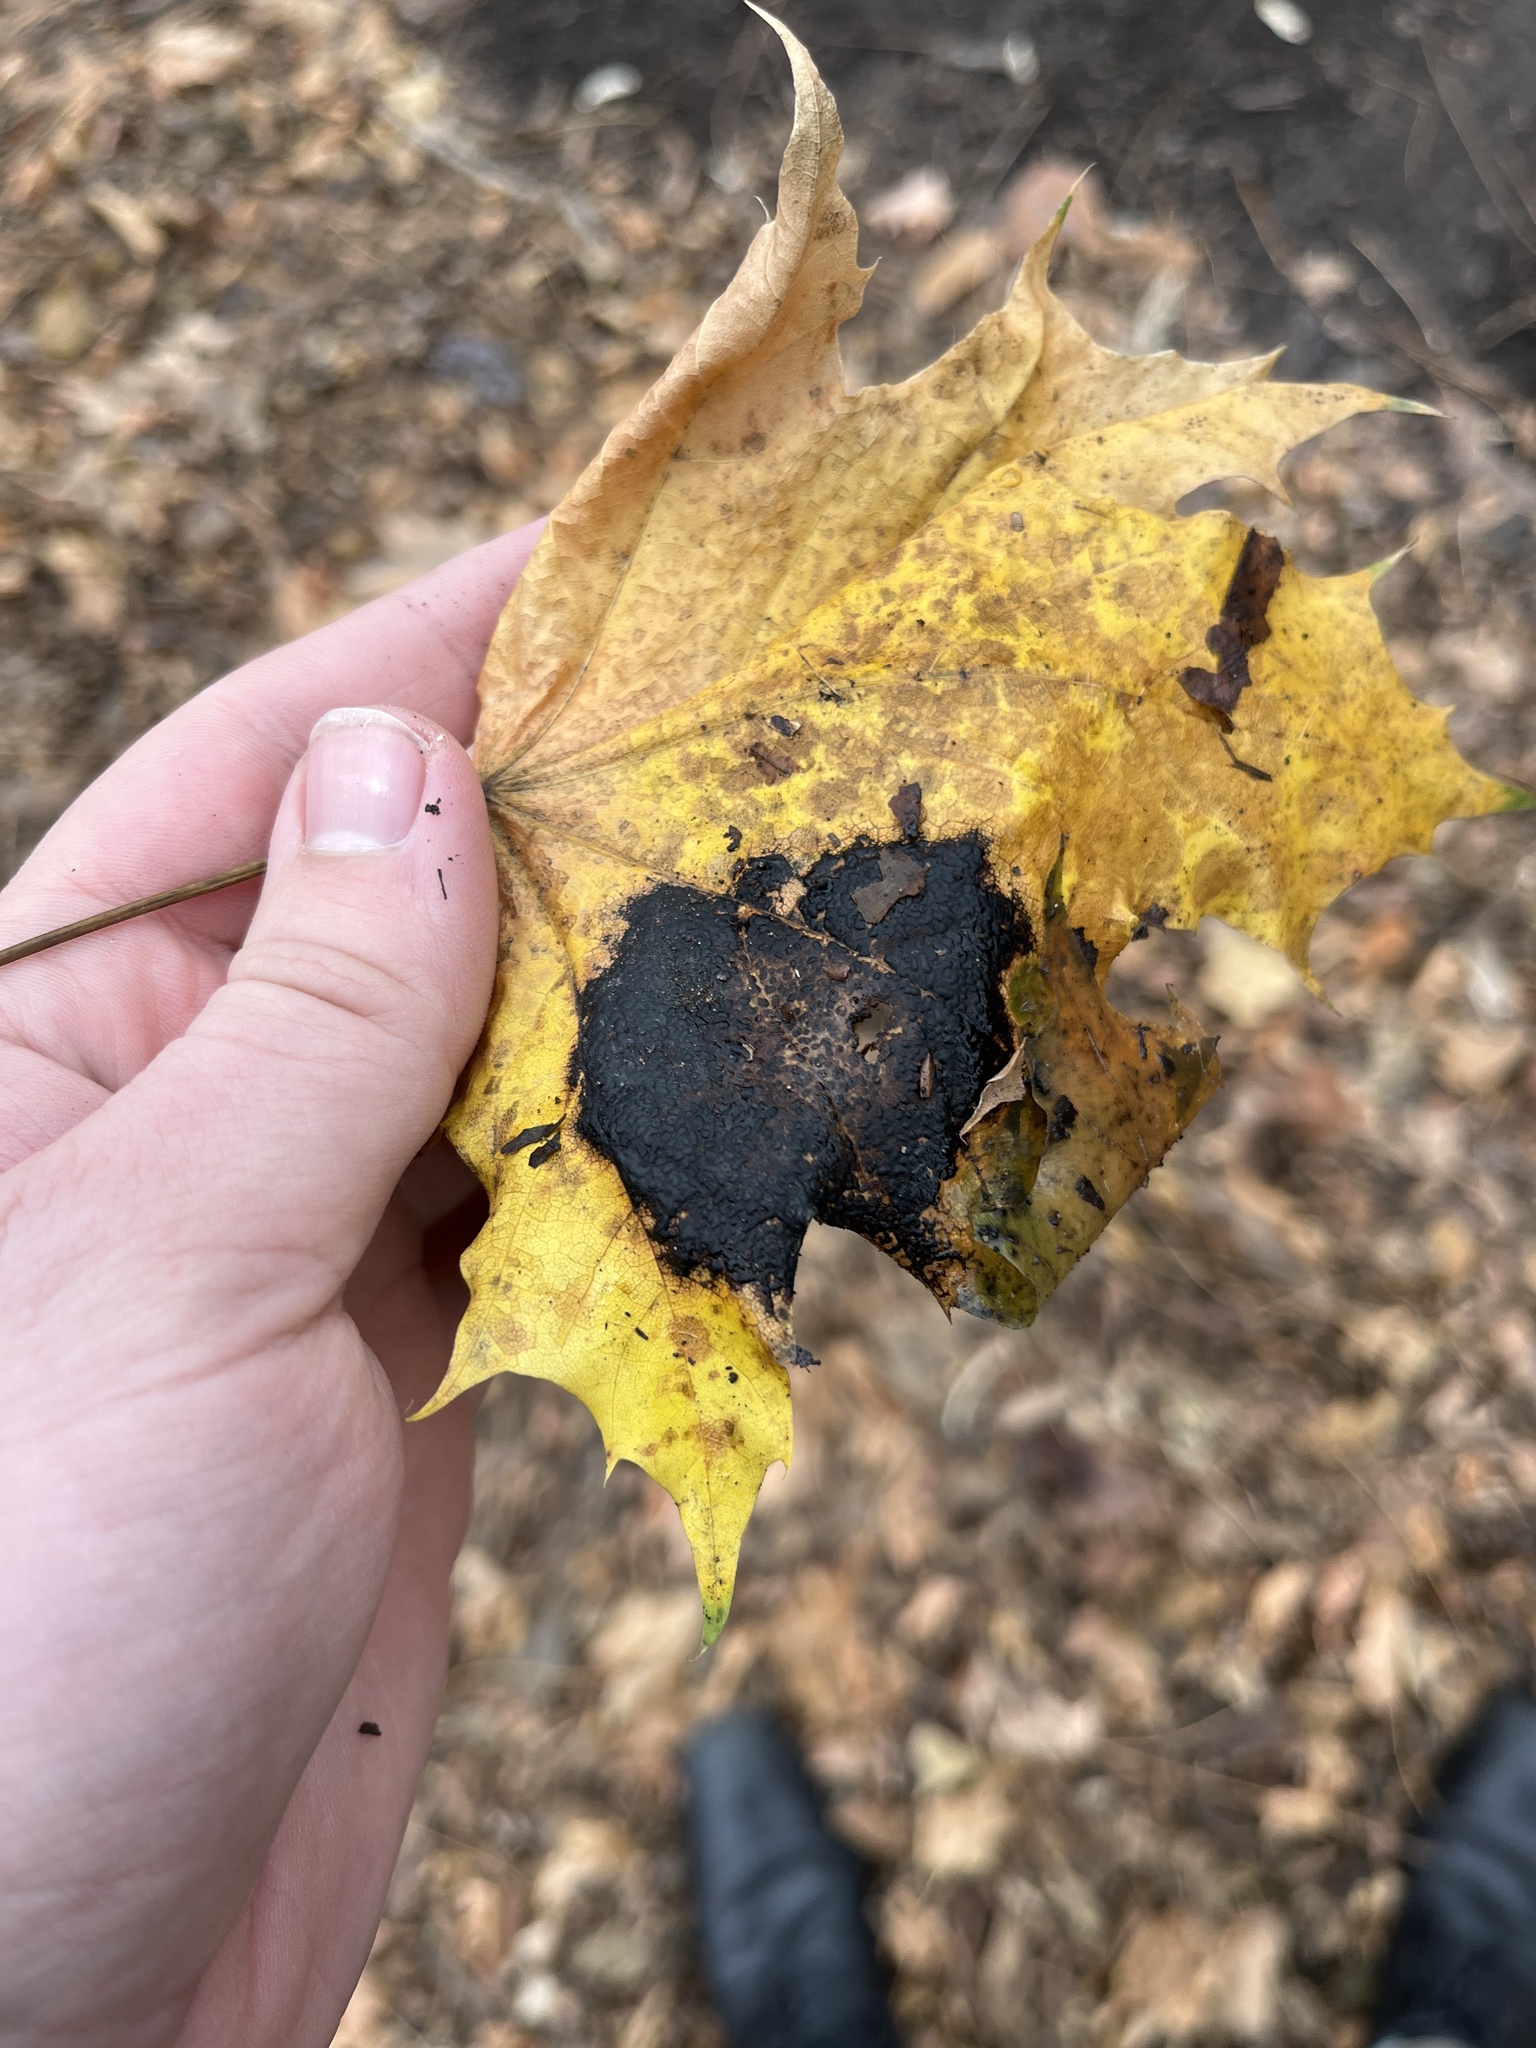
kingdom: Fungi
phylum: Ascomycota
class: Leotiomycetes
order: Rhytismatales
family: Rhytismataceae
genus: Rhytisma
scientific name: Rhytisma acerinum
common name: European tar spot
